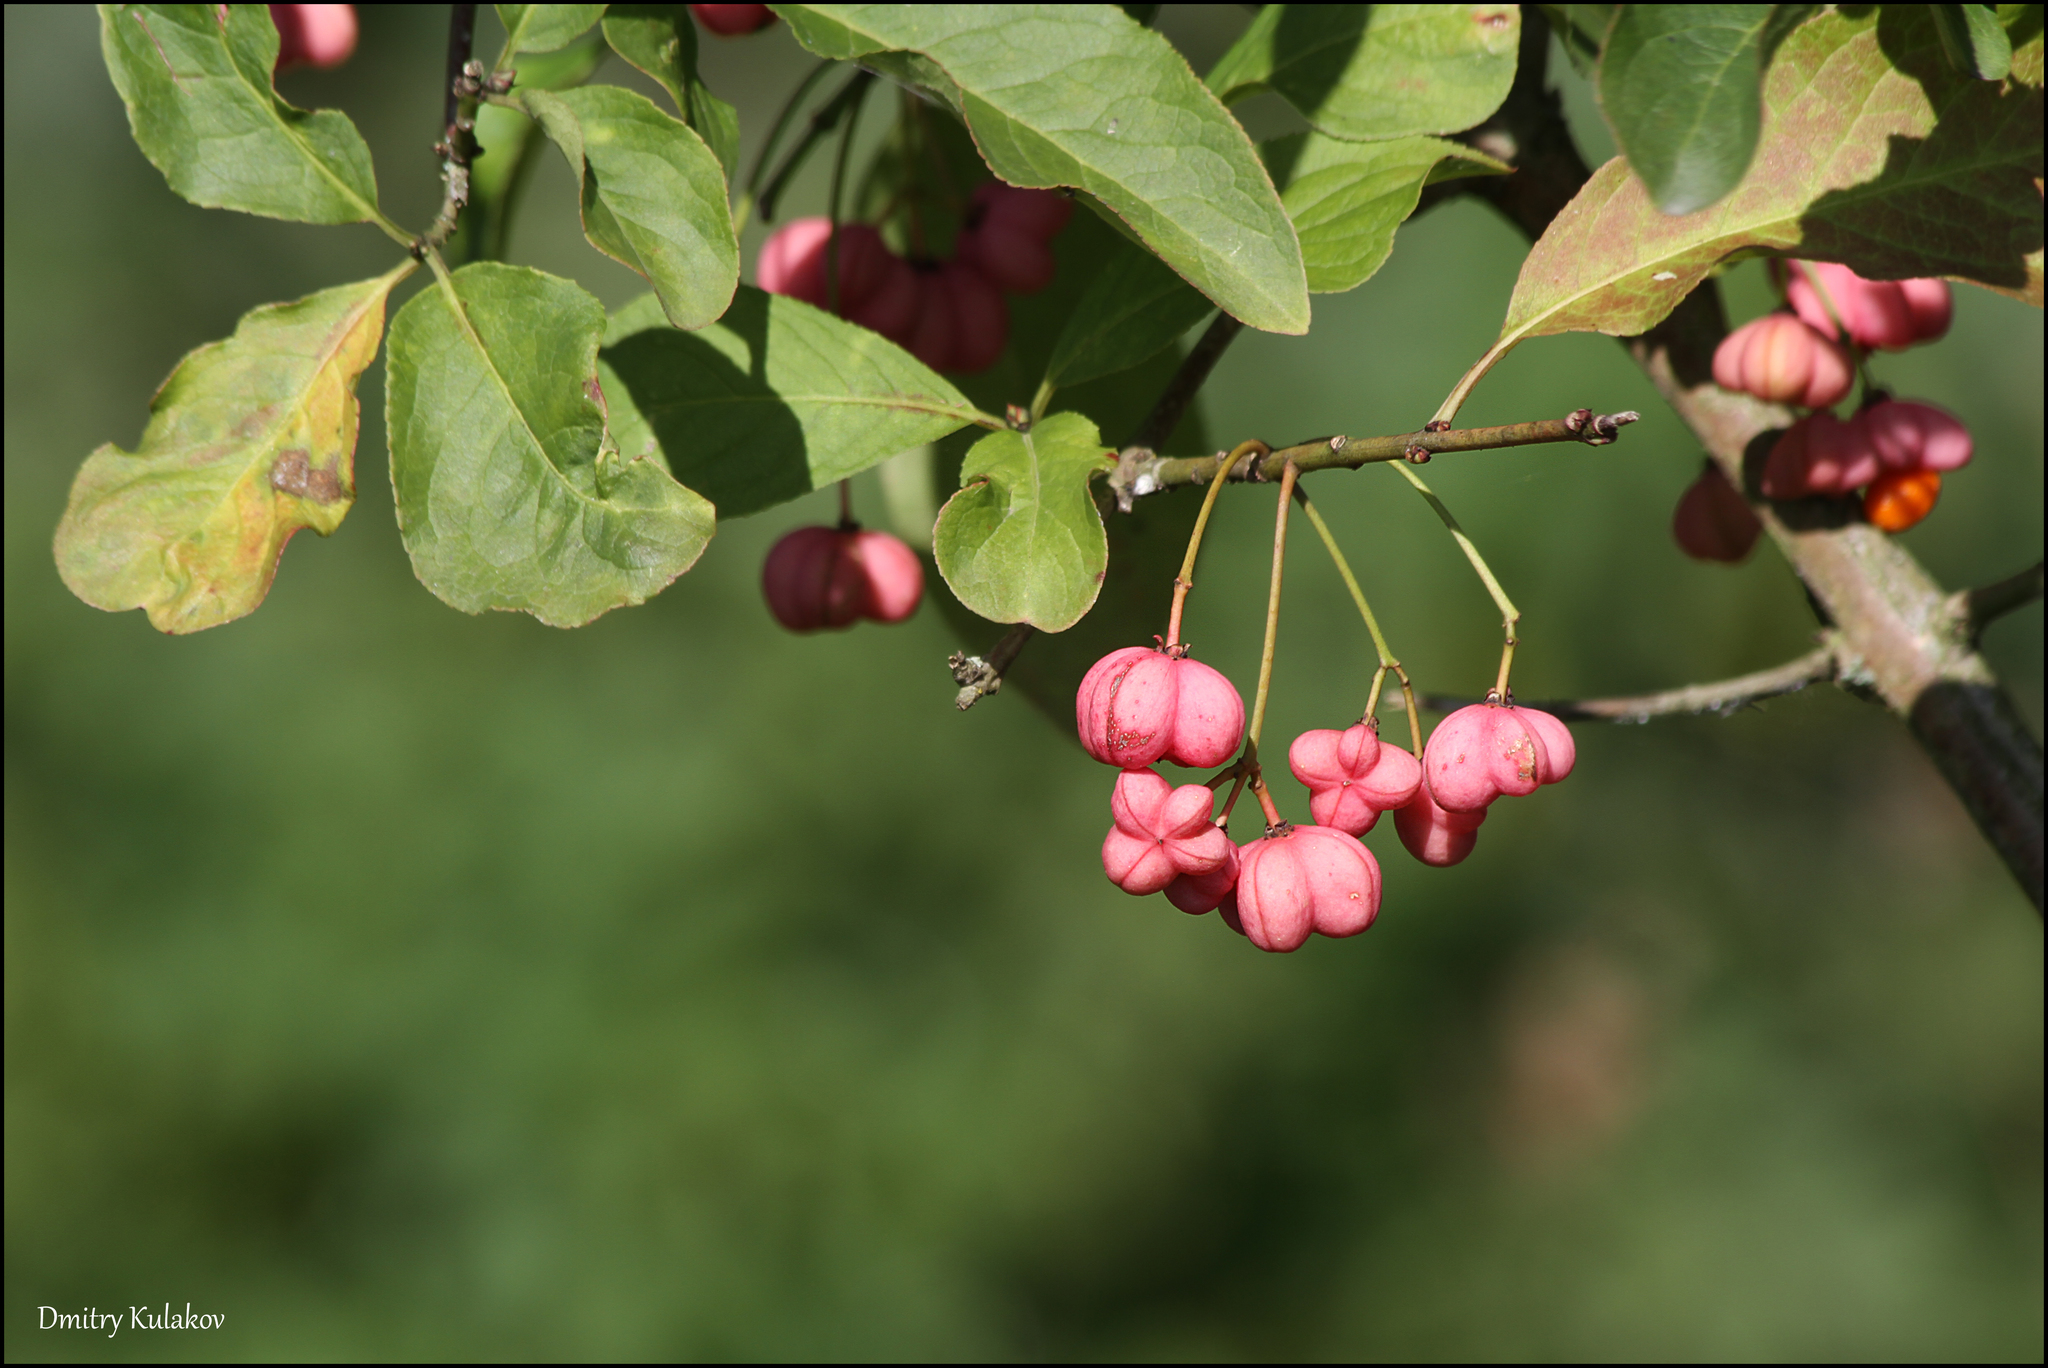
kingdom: Plantae
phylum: Tracheophyta
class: Magnoliopsida
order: Celastrales
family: Celastraceae
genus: Euonymus
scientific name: Euonymus europaeus
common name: Spindle
